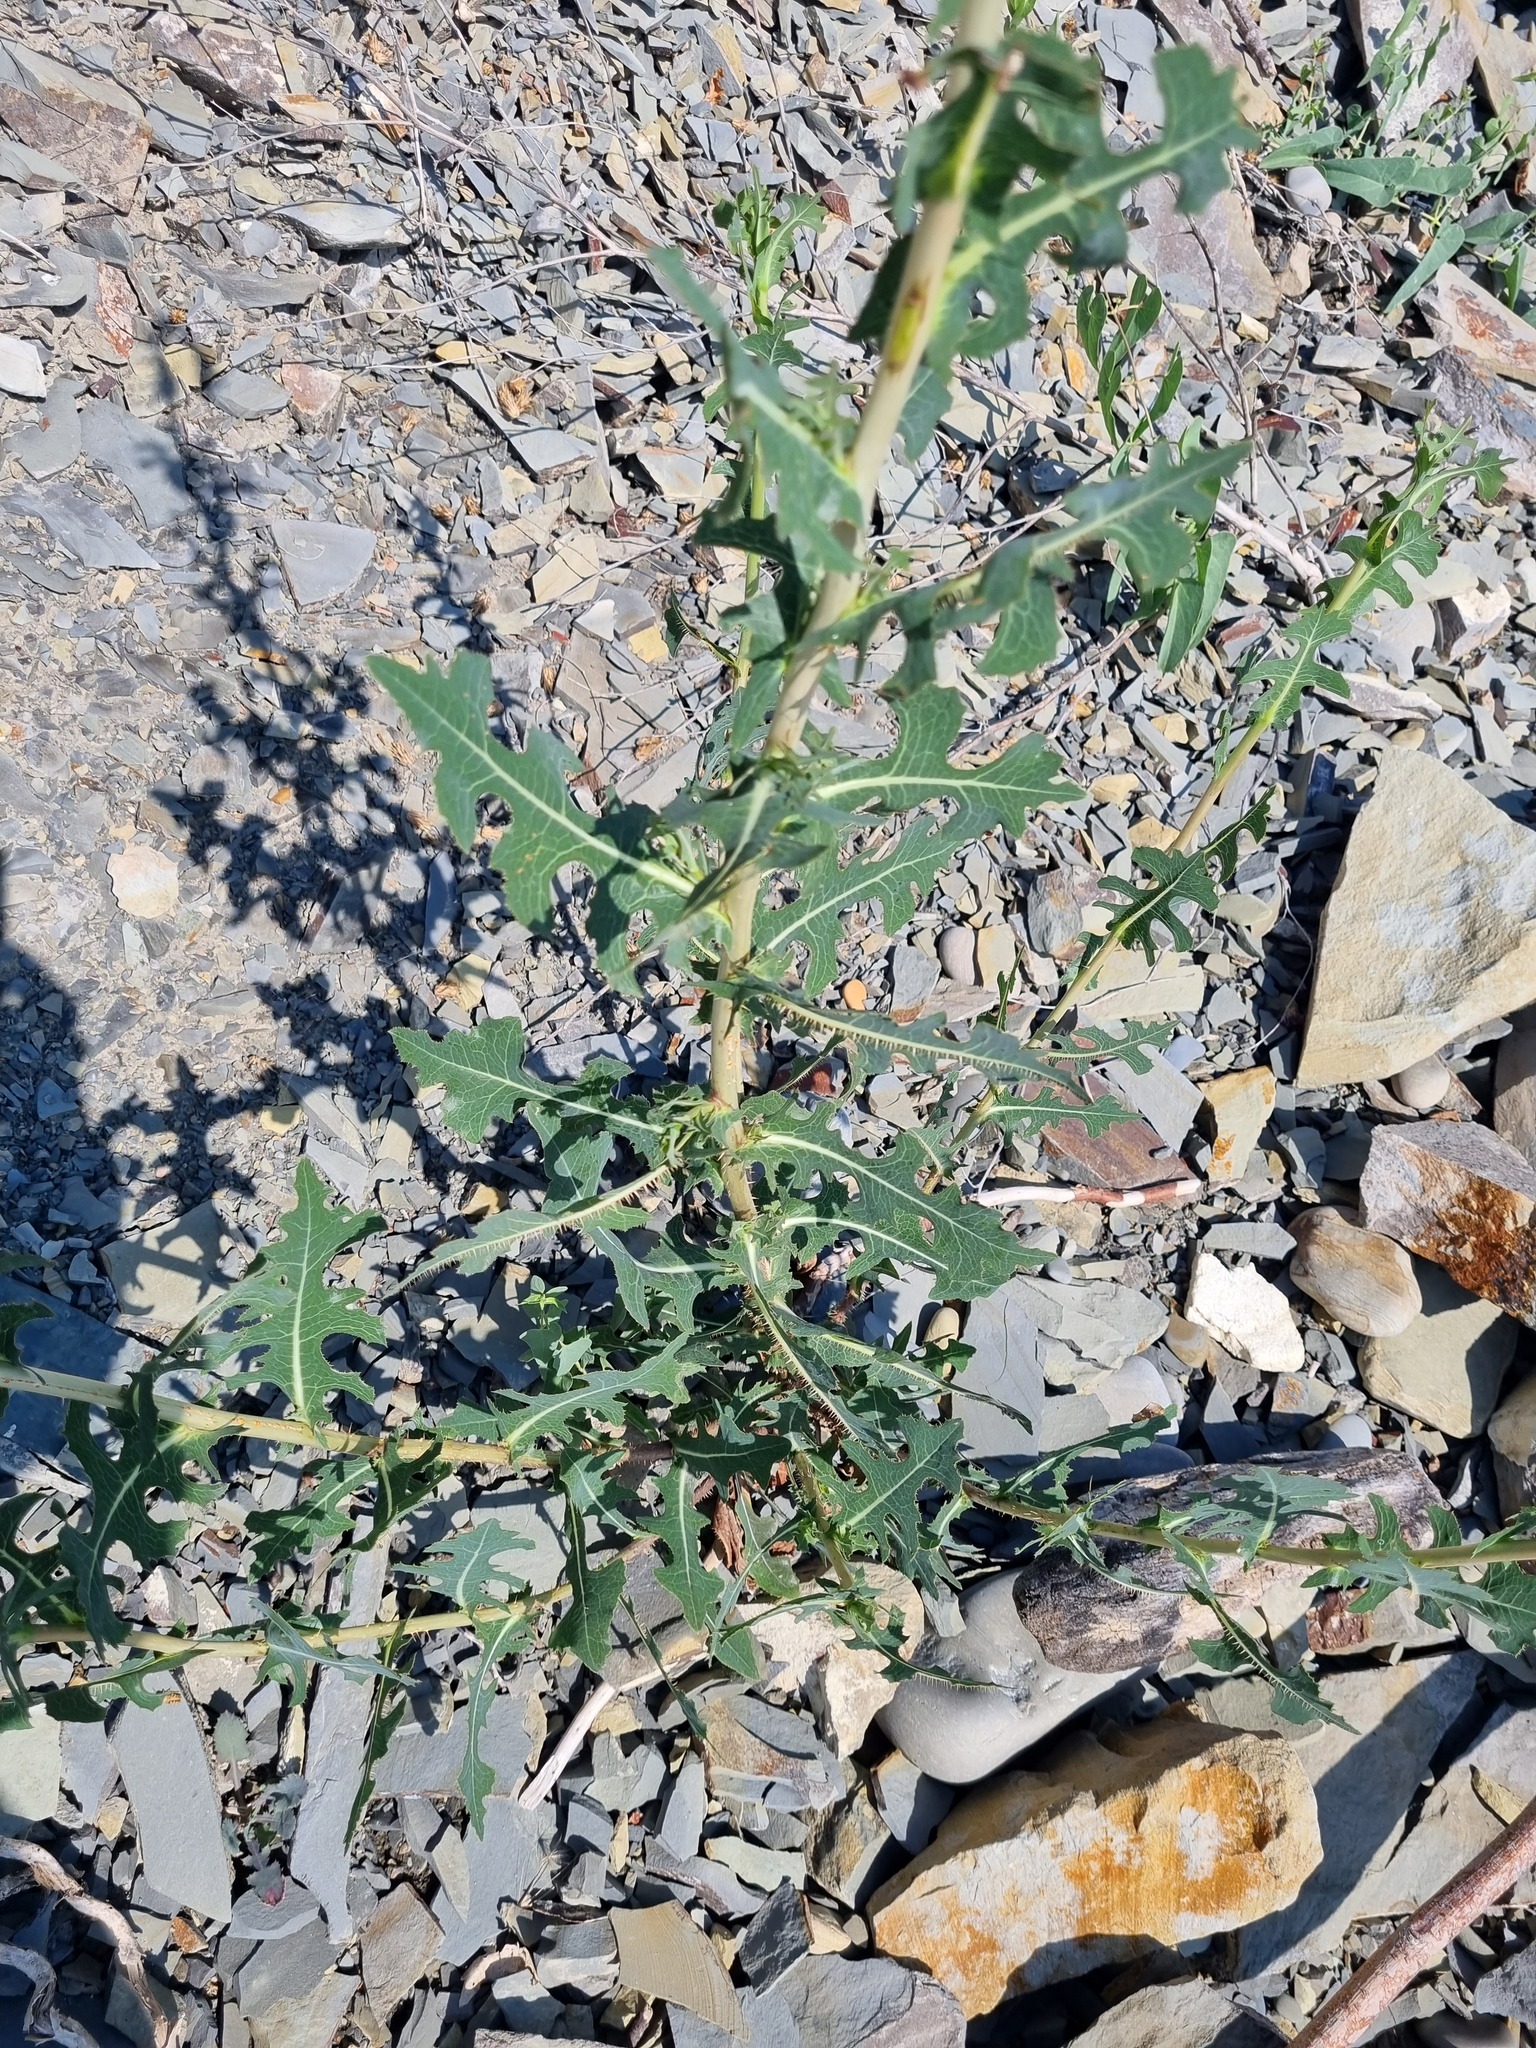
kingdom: Plantae
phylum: Tracheophyta
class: Magnoliopsida
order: Asterales
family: Asteraceae
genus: Lactuca
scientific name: Lactuca serriola
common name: Prickly lettuce
